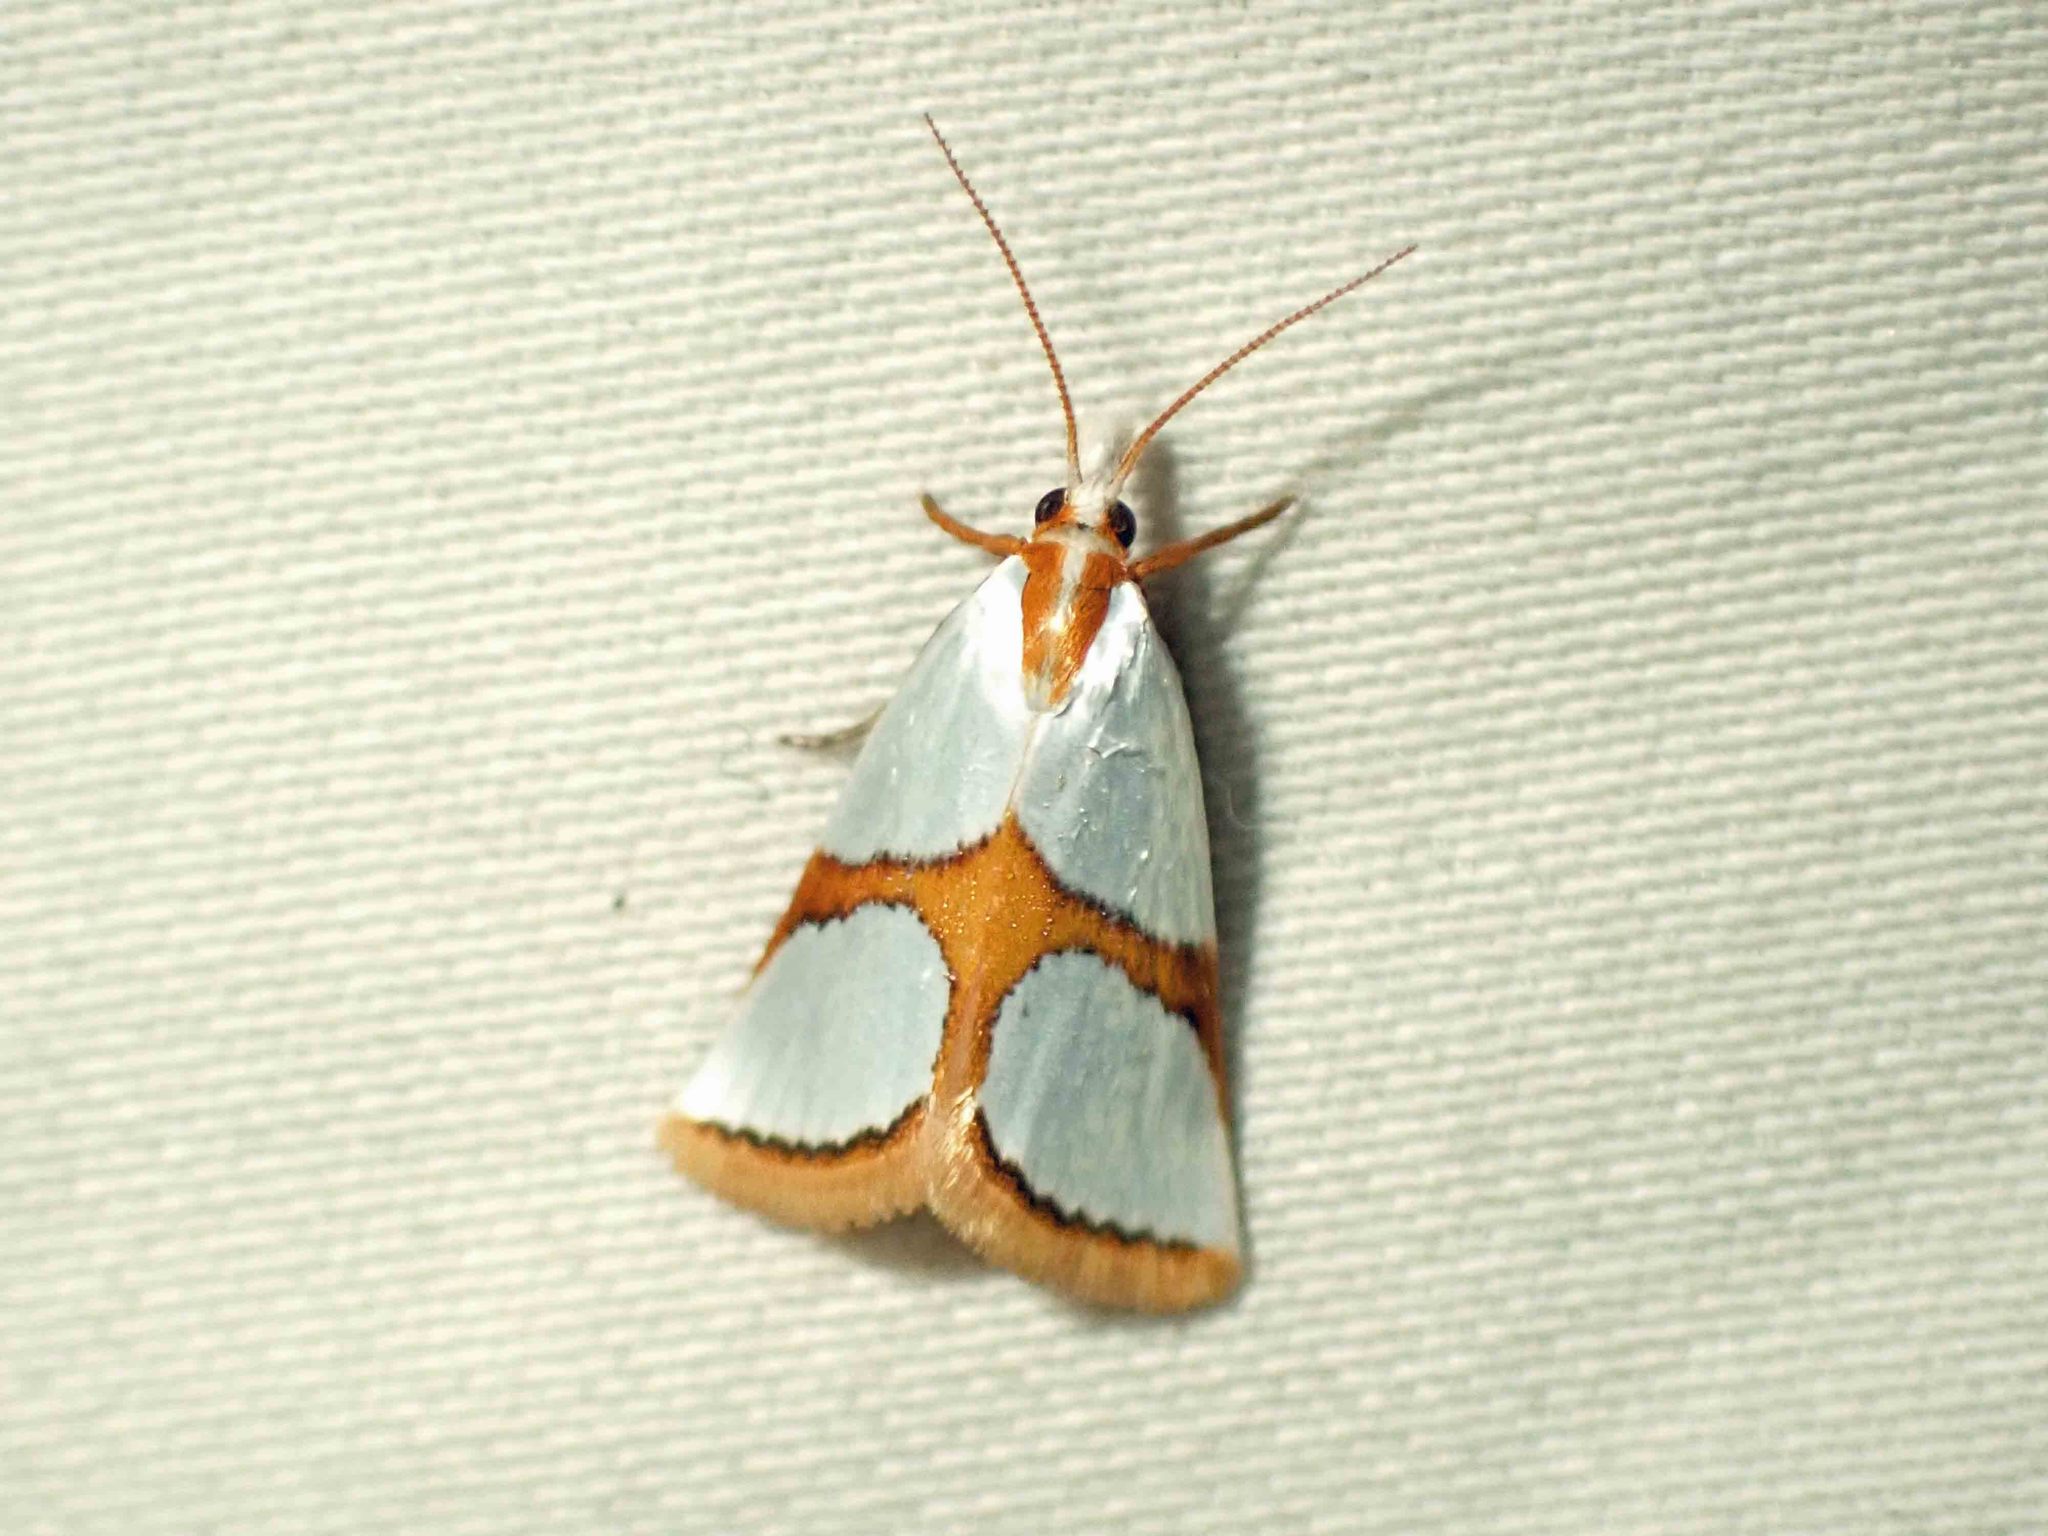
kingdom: Animalia
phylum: Arthropoda
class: Insecta
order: Lepidoptera
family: Crambidae
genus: Argyria
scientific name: Argyria auratella
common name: Curve-lined argyria moth
